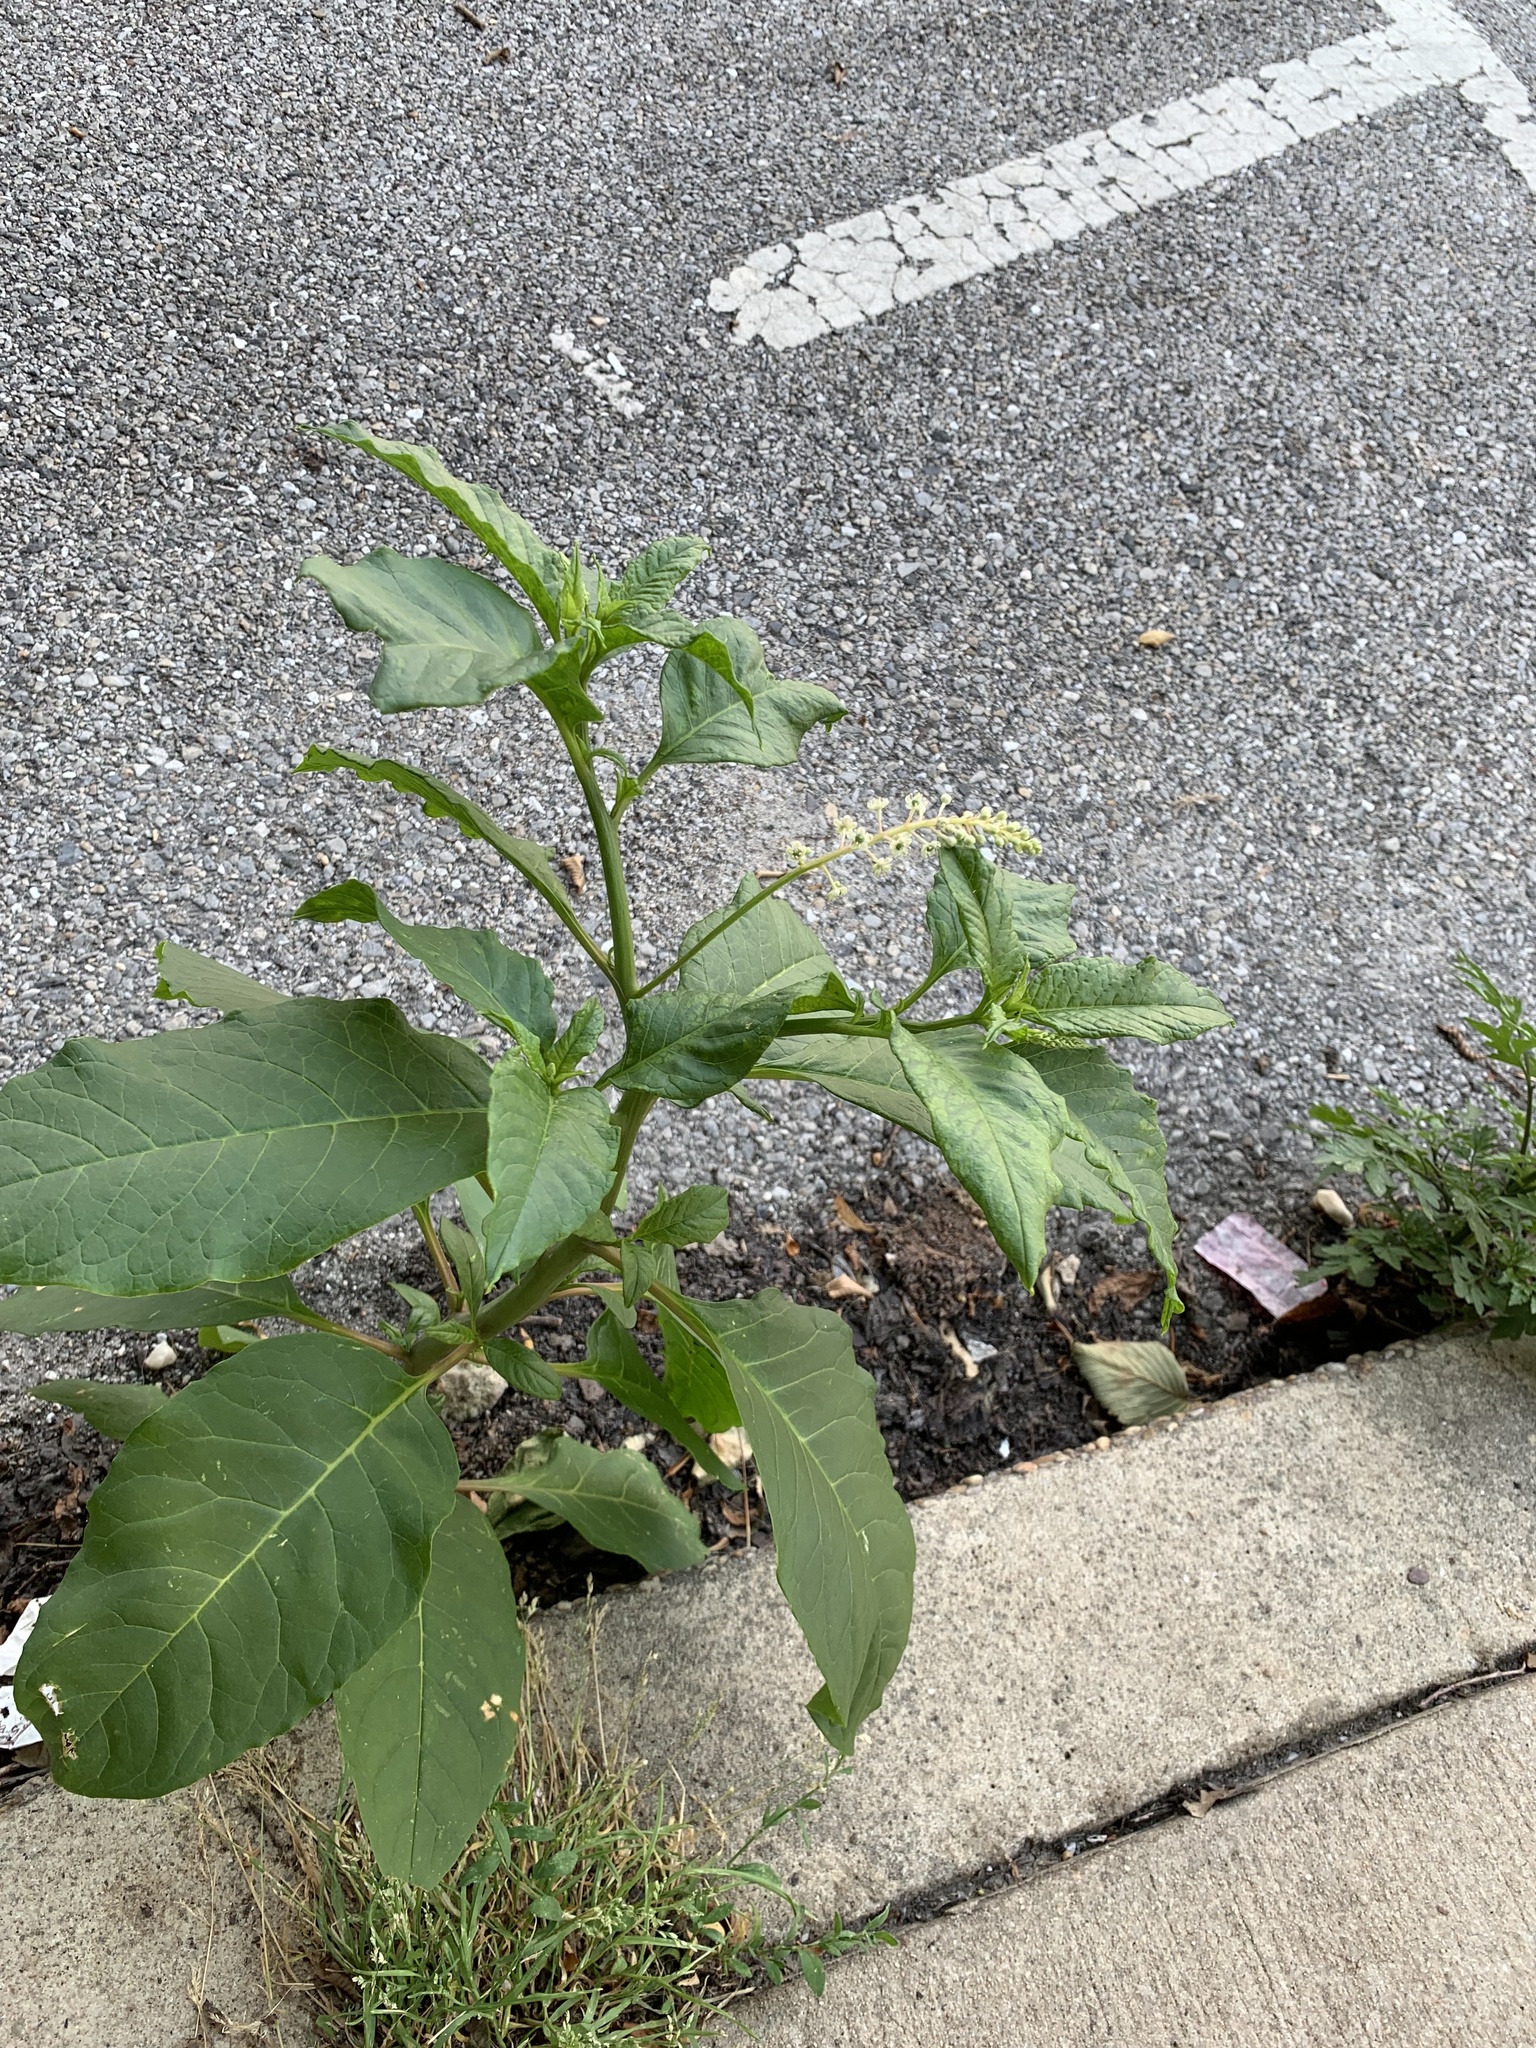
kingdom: Plantae
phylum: Tracheophyta
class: Magnoliopsida
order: Caryophyllales
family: Phytolaccaceae
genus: Phytolacca
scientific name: Phytolacca americana
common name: American pokeweed
